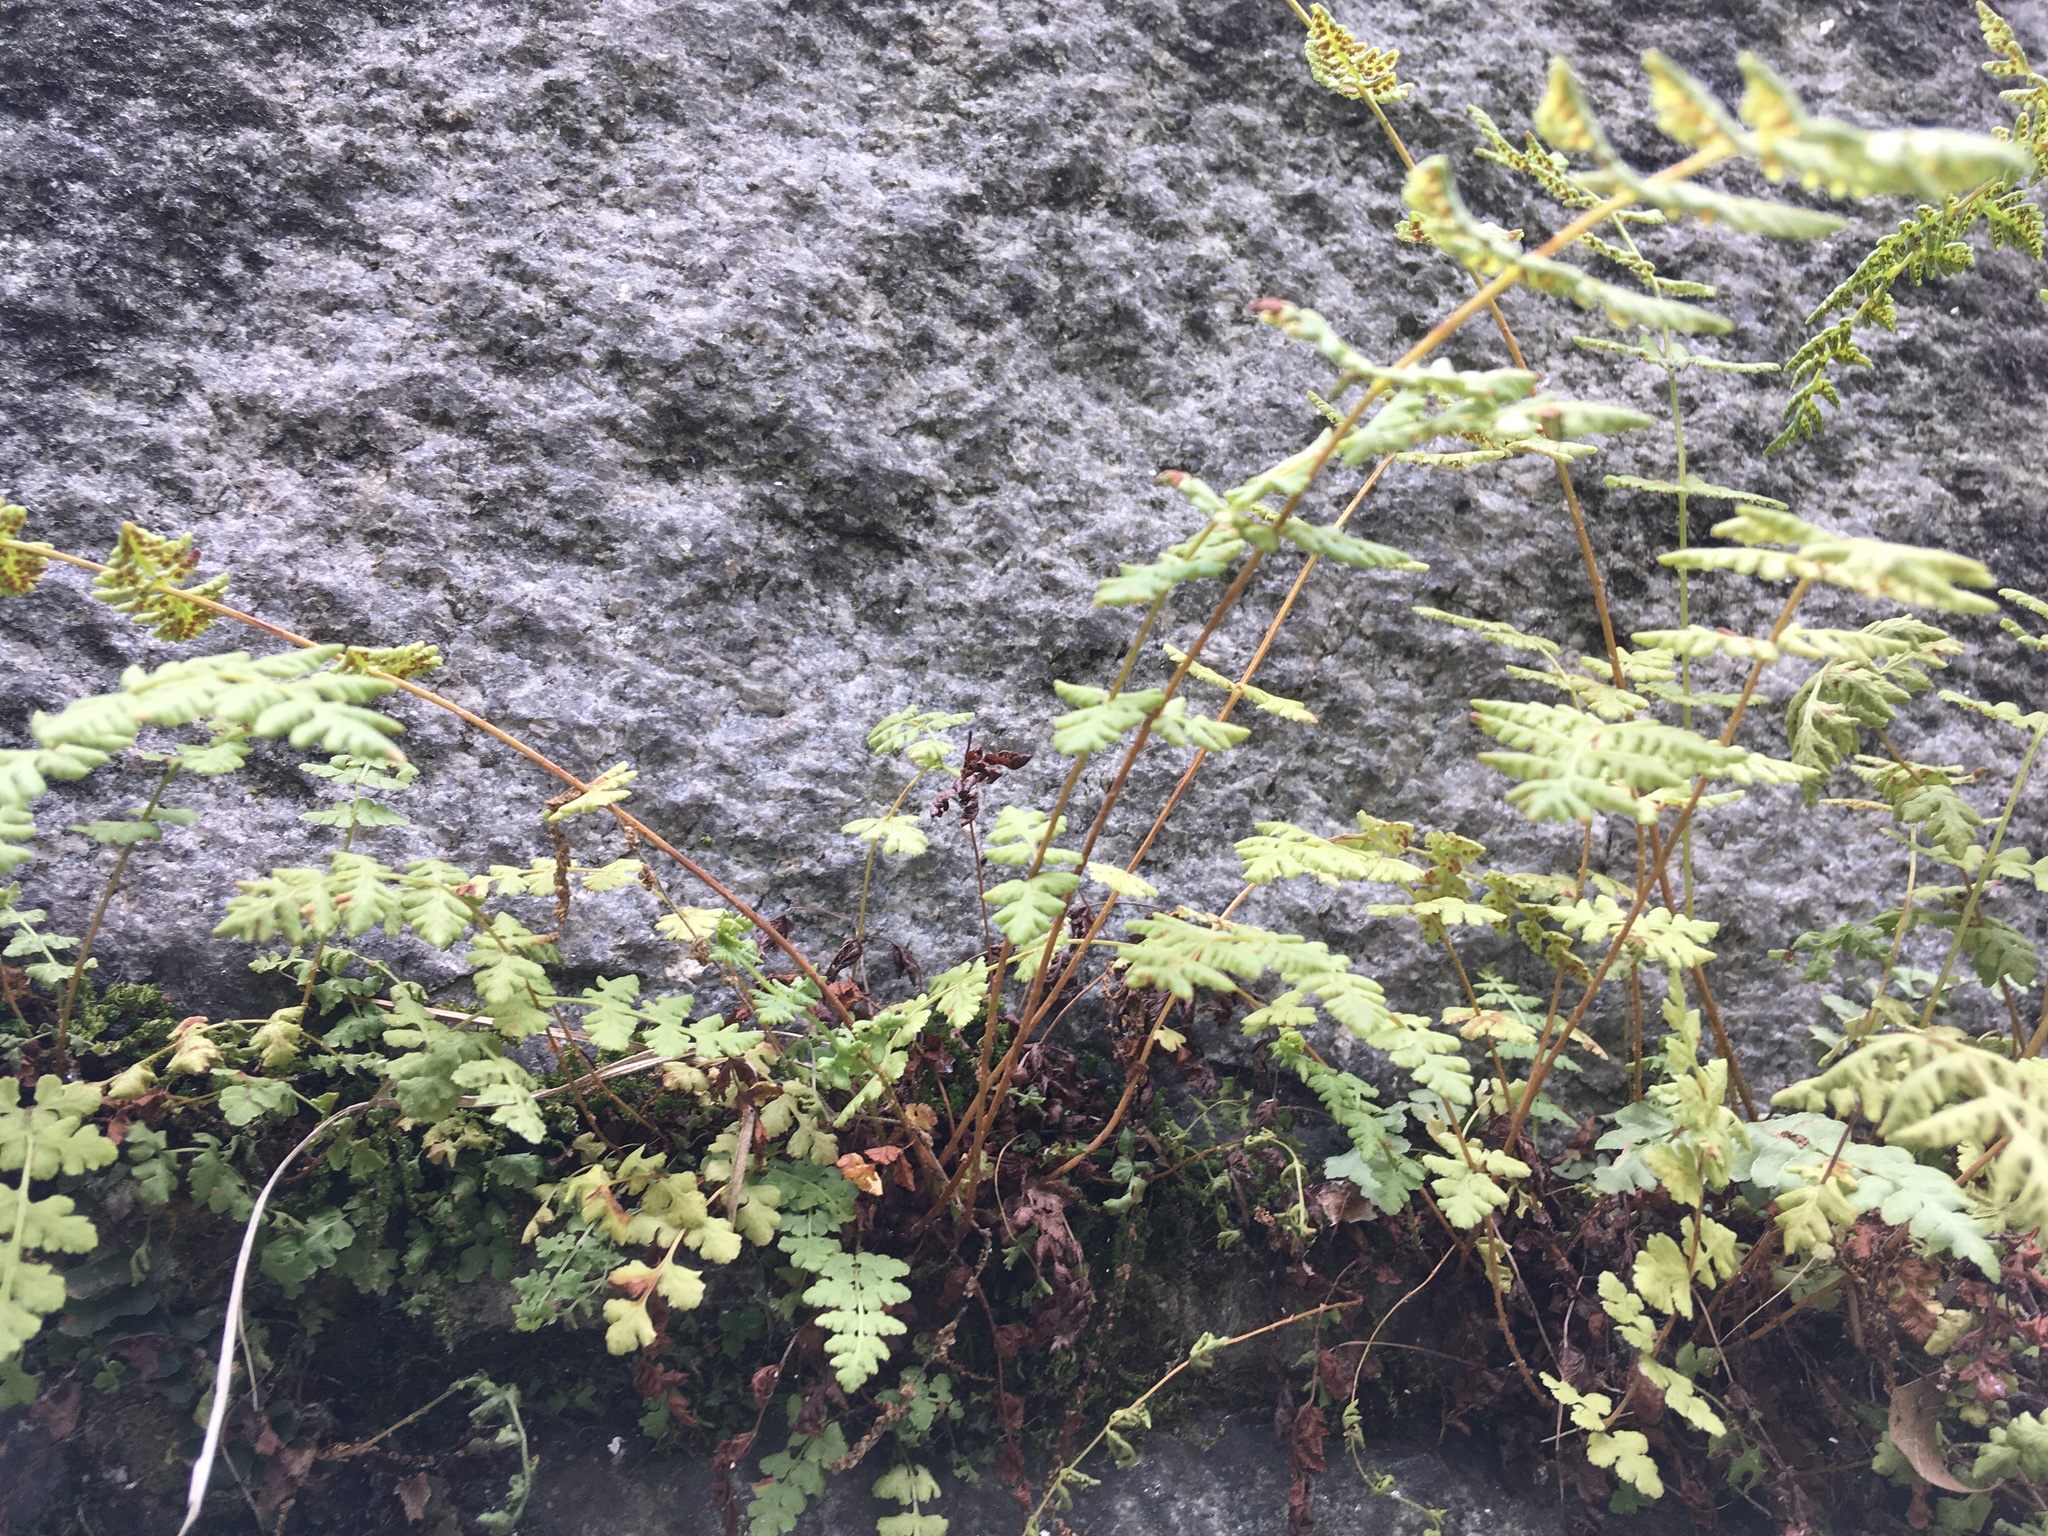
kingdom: Plantae
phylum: Tracheophyta
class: Polypodiopsida
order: Polypodiales
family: Woodsiaceae
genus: Physematium
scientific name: Physematium obtusum
